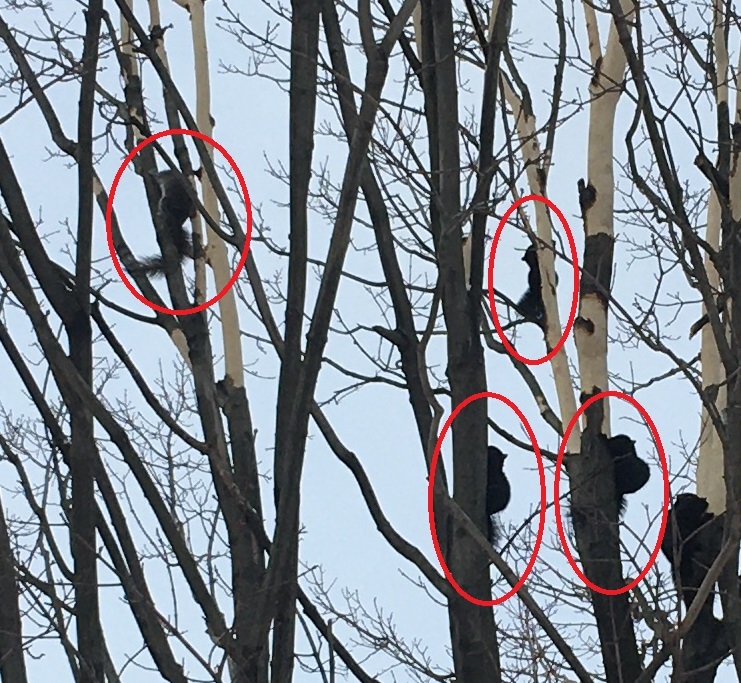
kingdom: Animalia
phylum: Chordata
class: Mammalia
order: Rodentia
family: Sciuridae
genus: Sciurus
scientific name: Sciurus carolinensis
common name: Eastern gray squirrel
